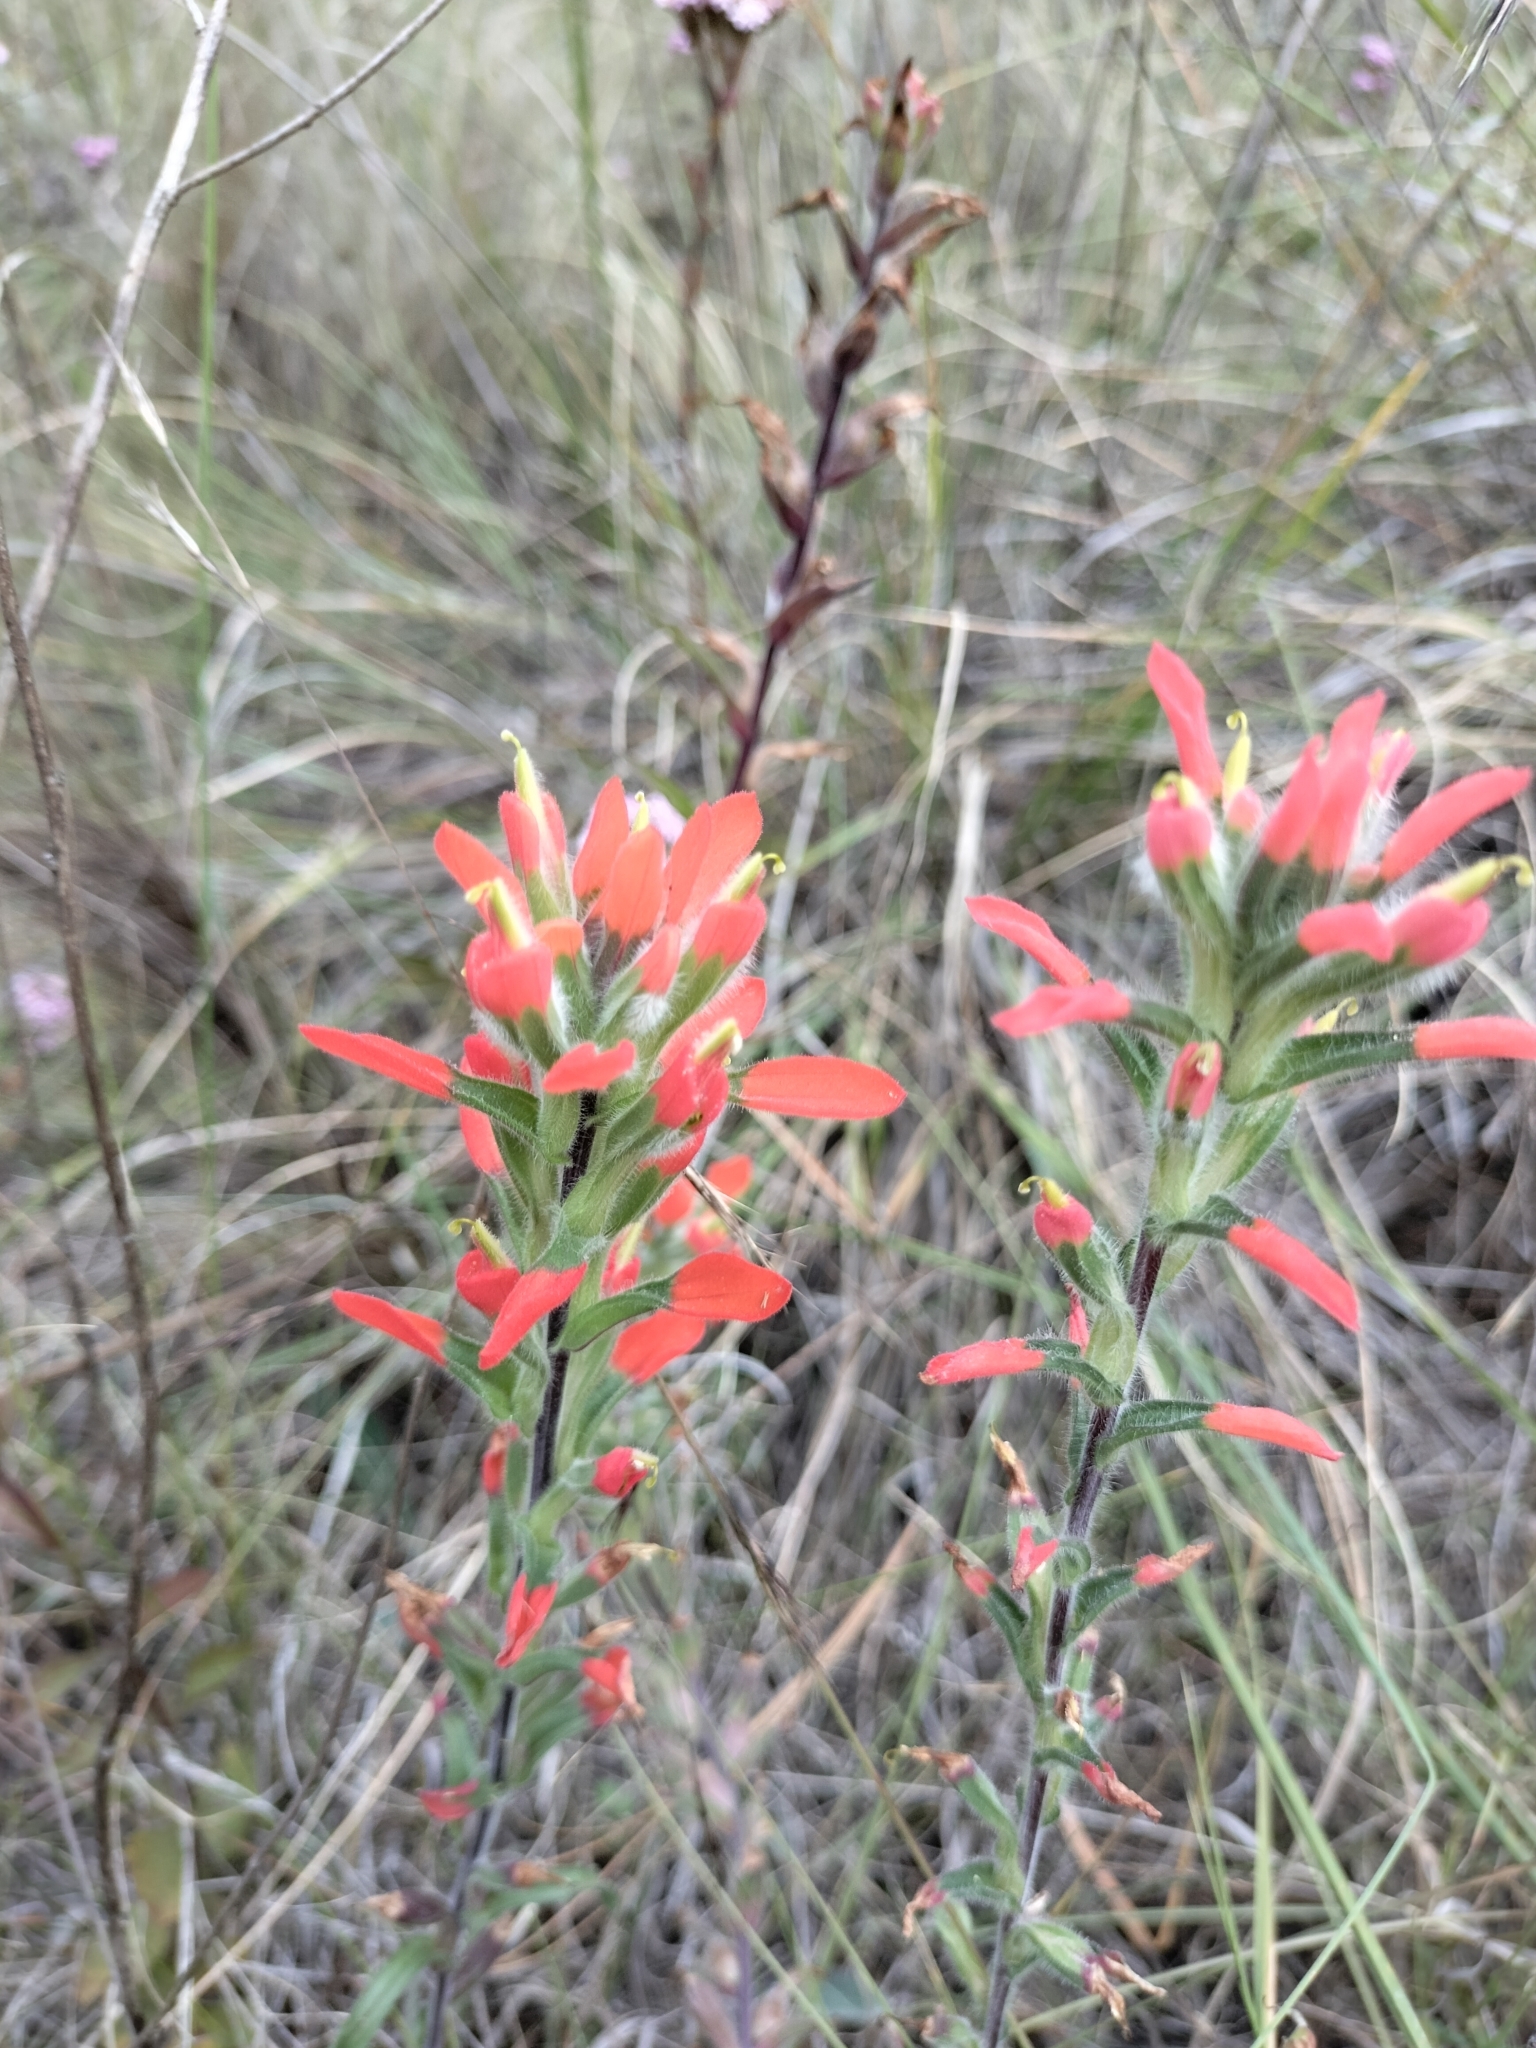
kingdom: Plantae
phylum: Tracheophyta
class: Magnoliopsida
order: Lamiales
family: Orobanchaceae
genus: Castilleja
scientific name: Castilleja scorzonerifolia
